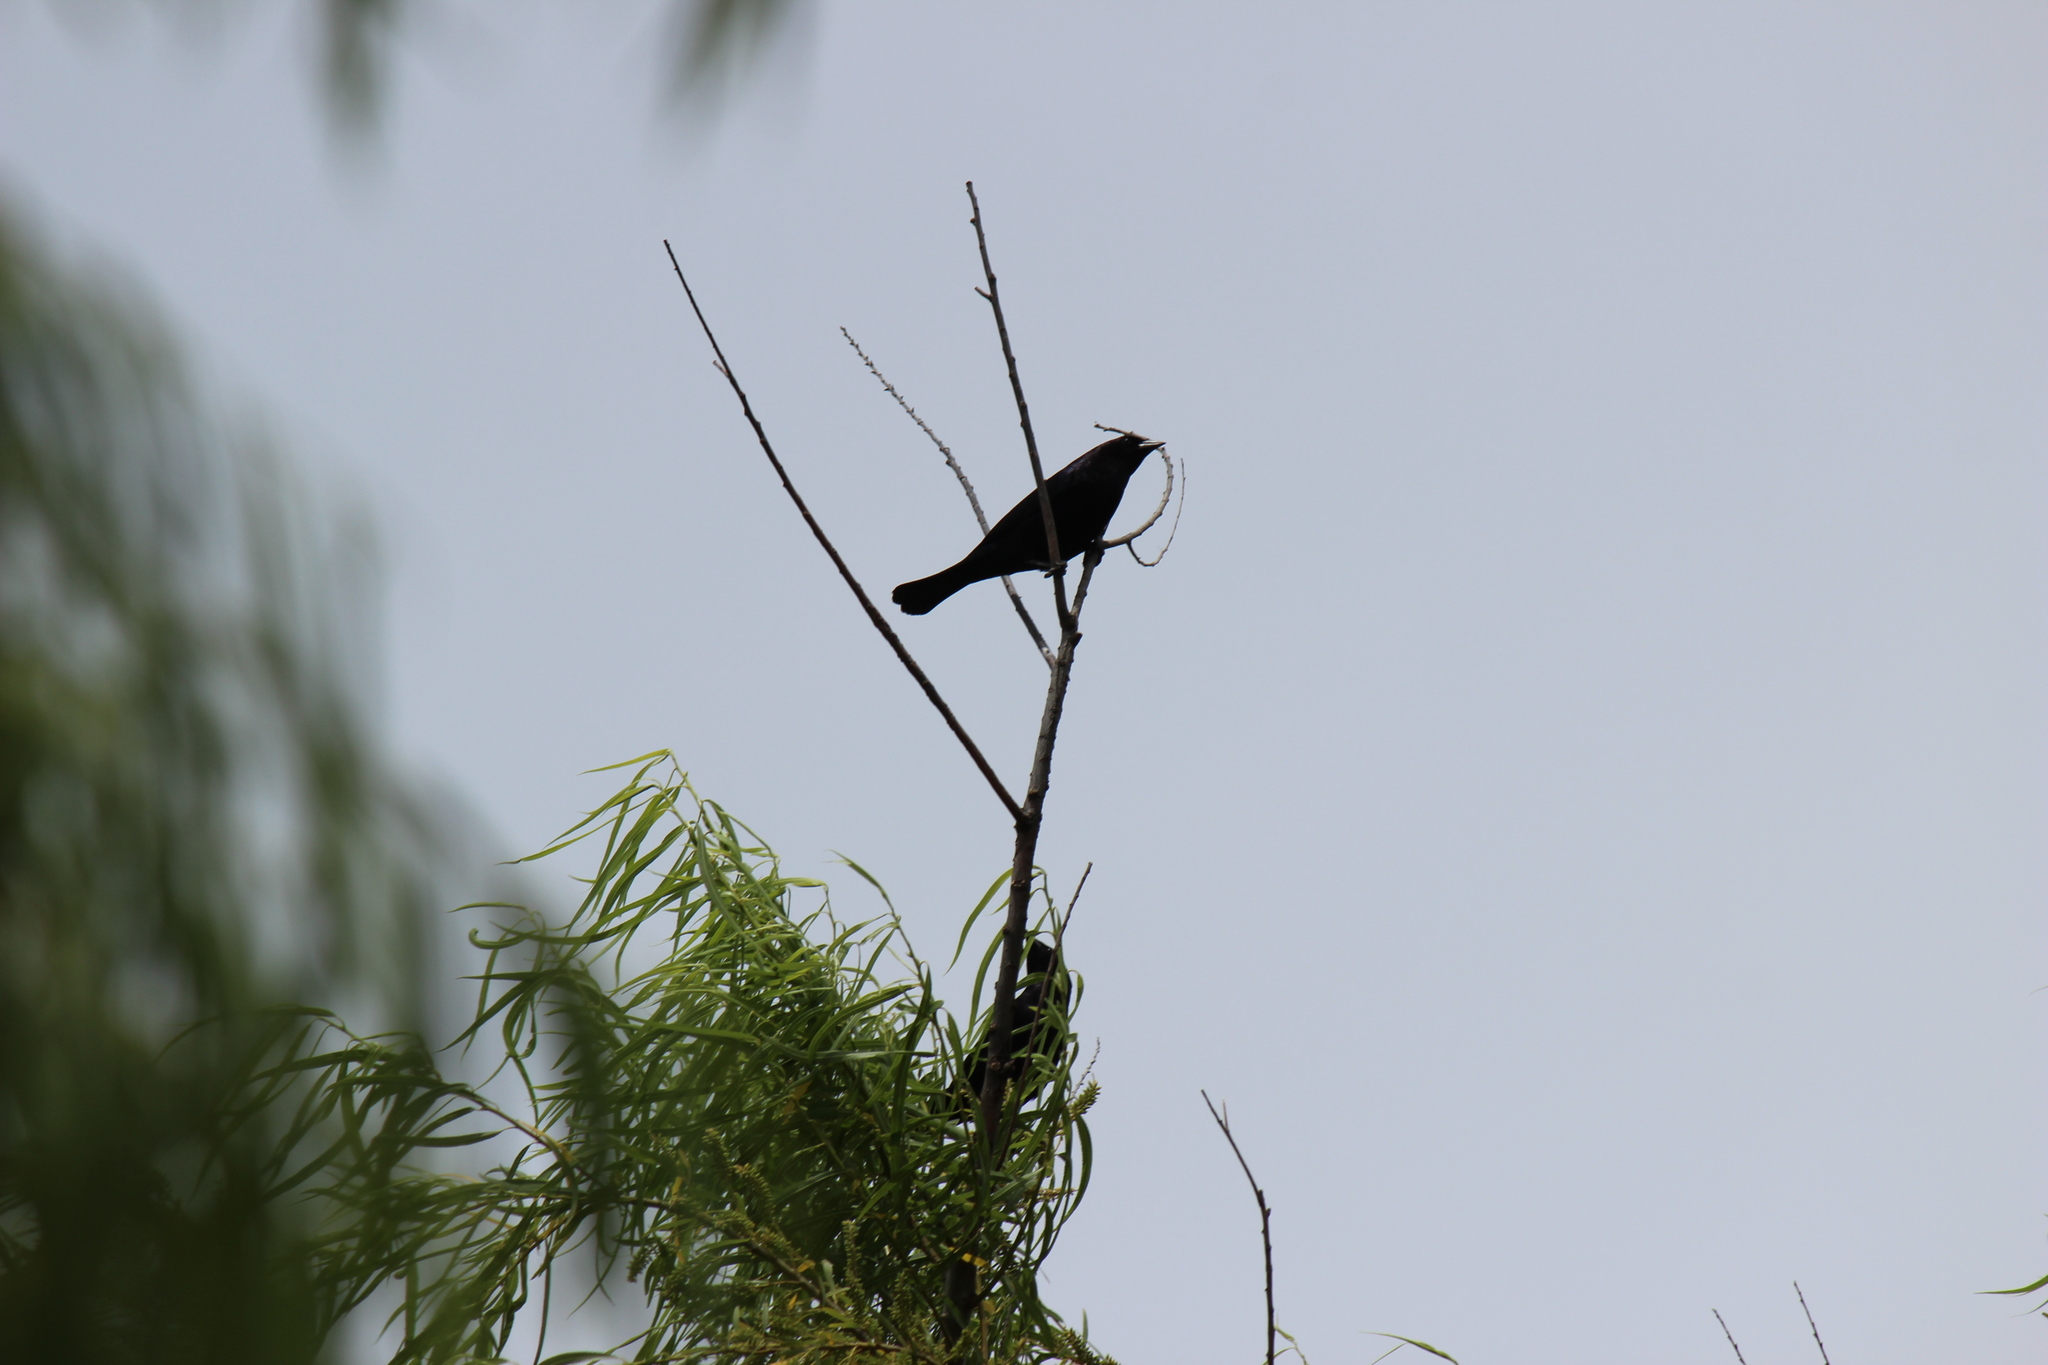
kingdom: Animalia
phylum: Chordata
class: Aves
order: Passeriformes
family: Icteridae
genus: Molothrus
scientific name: Molothrus bonariensis
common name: Shiny cowbird
